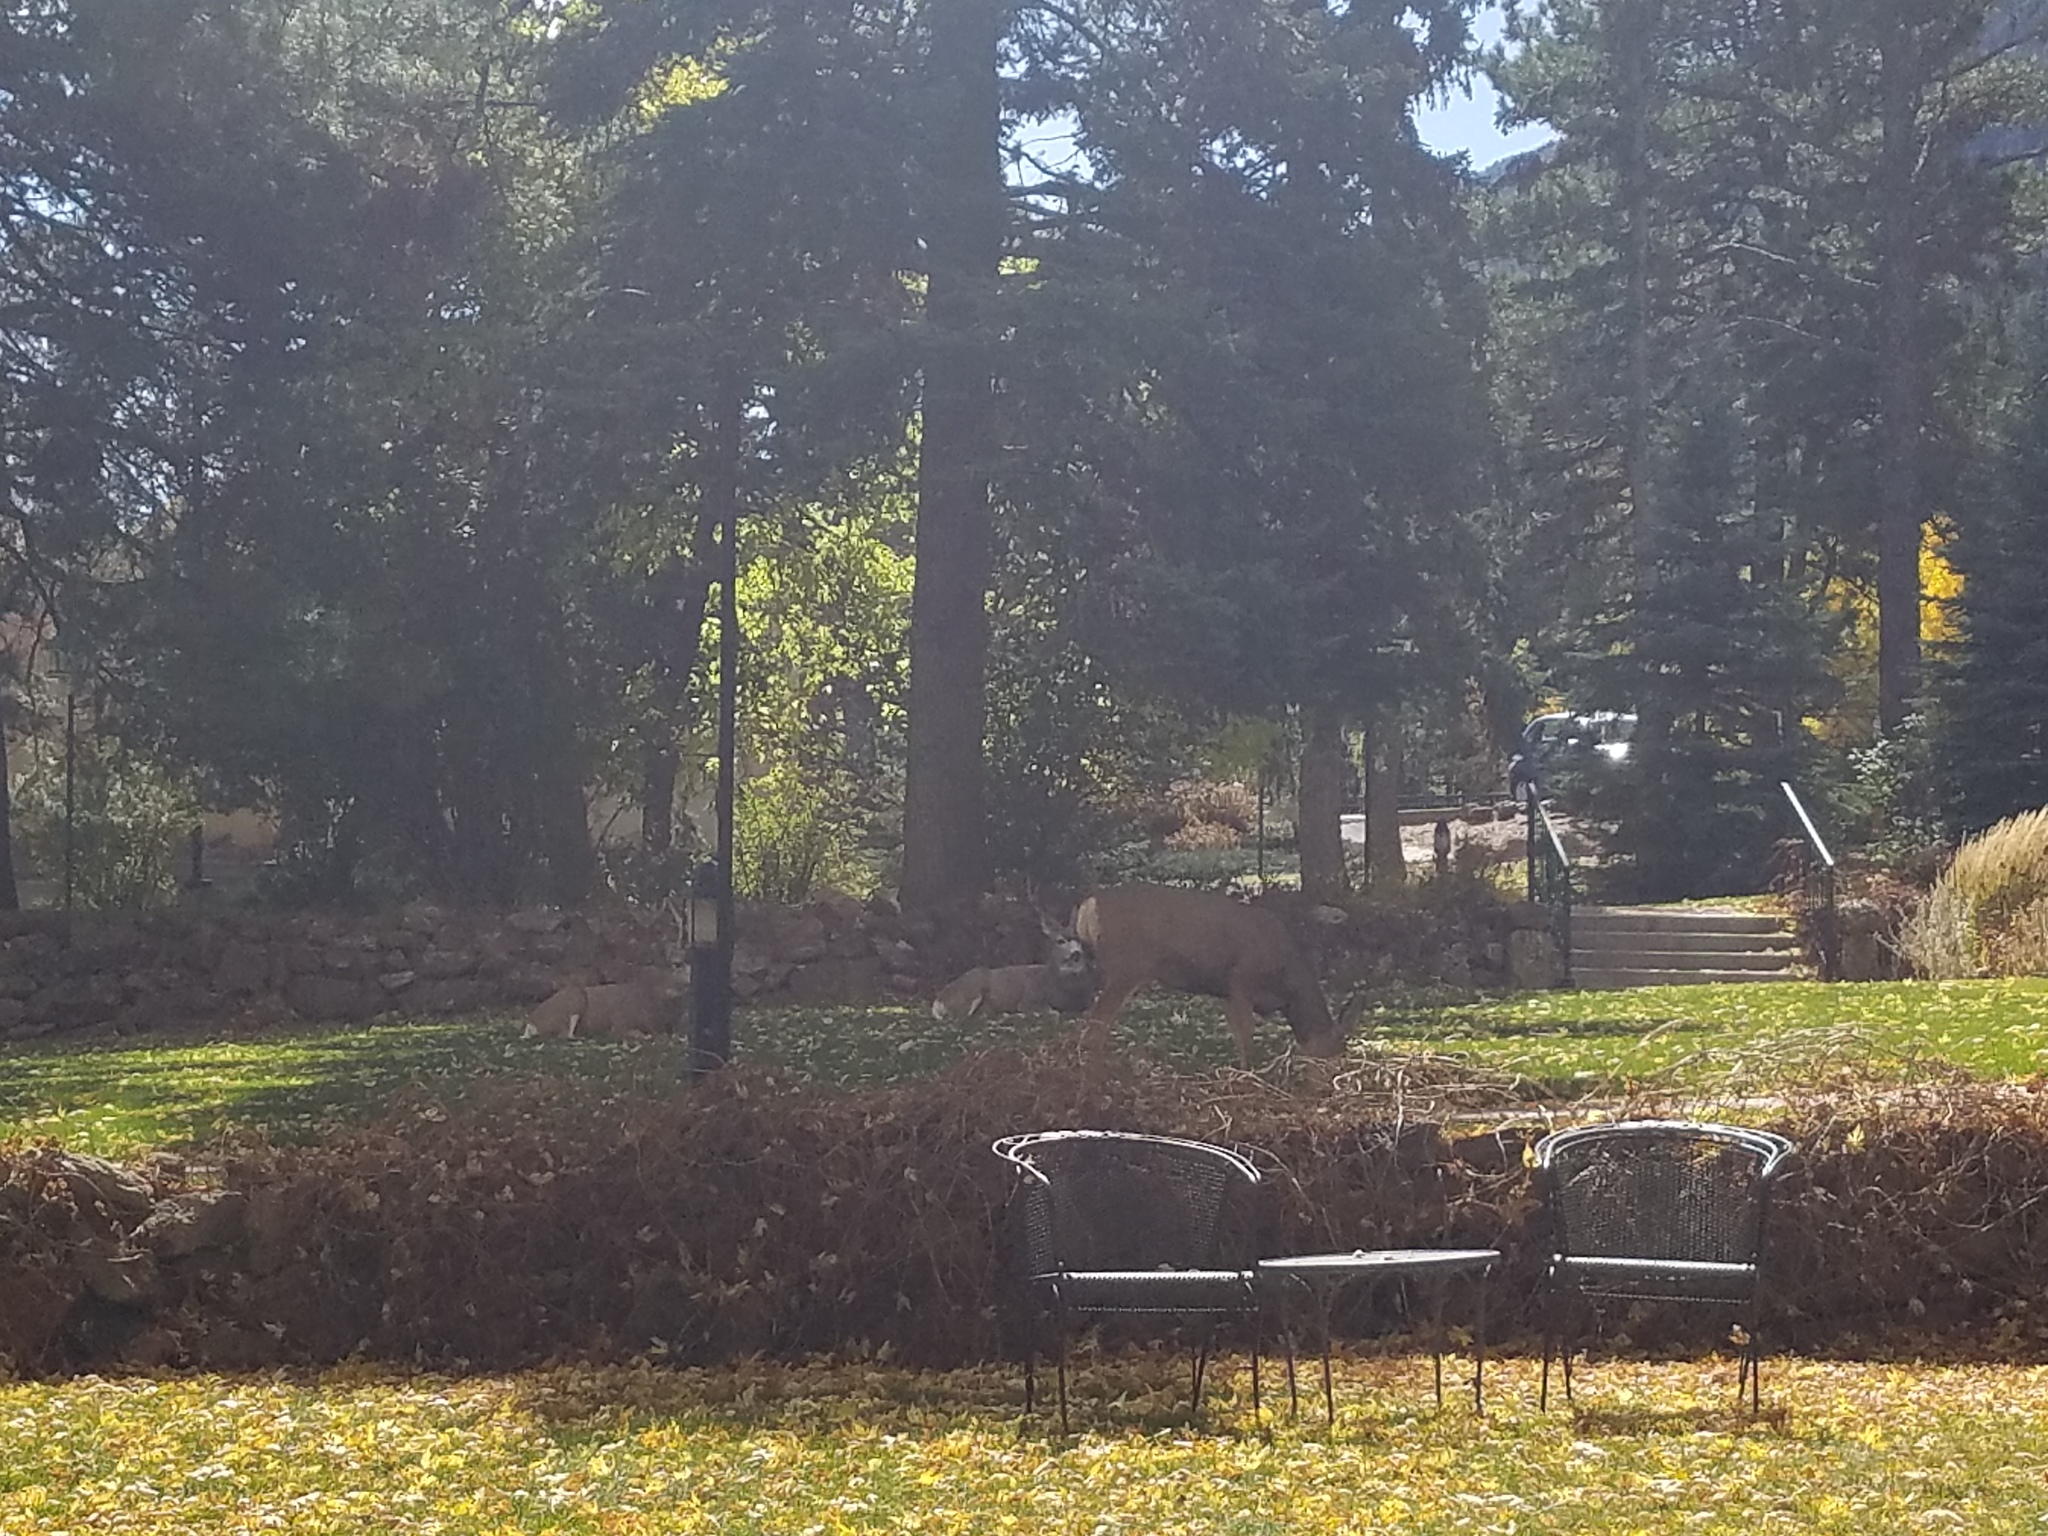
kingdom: Animalia
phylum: Chordata
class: Mammalia
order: Artiodactyla
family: Cervidae
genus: Odocoileus
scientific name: Odocoileus hemionus
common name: Mule deer
